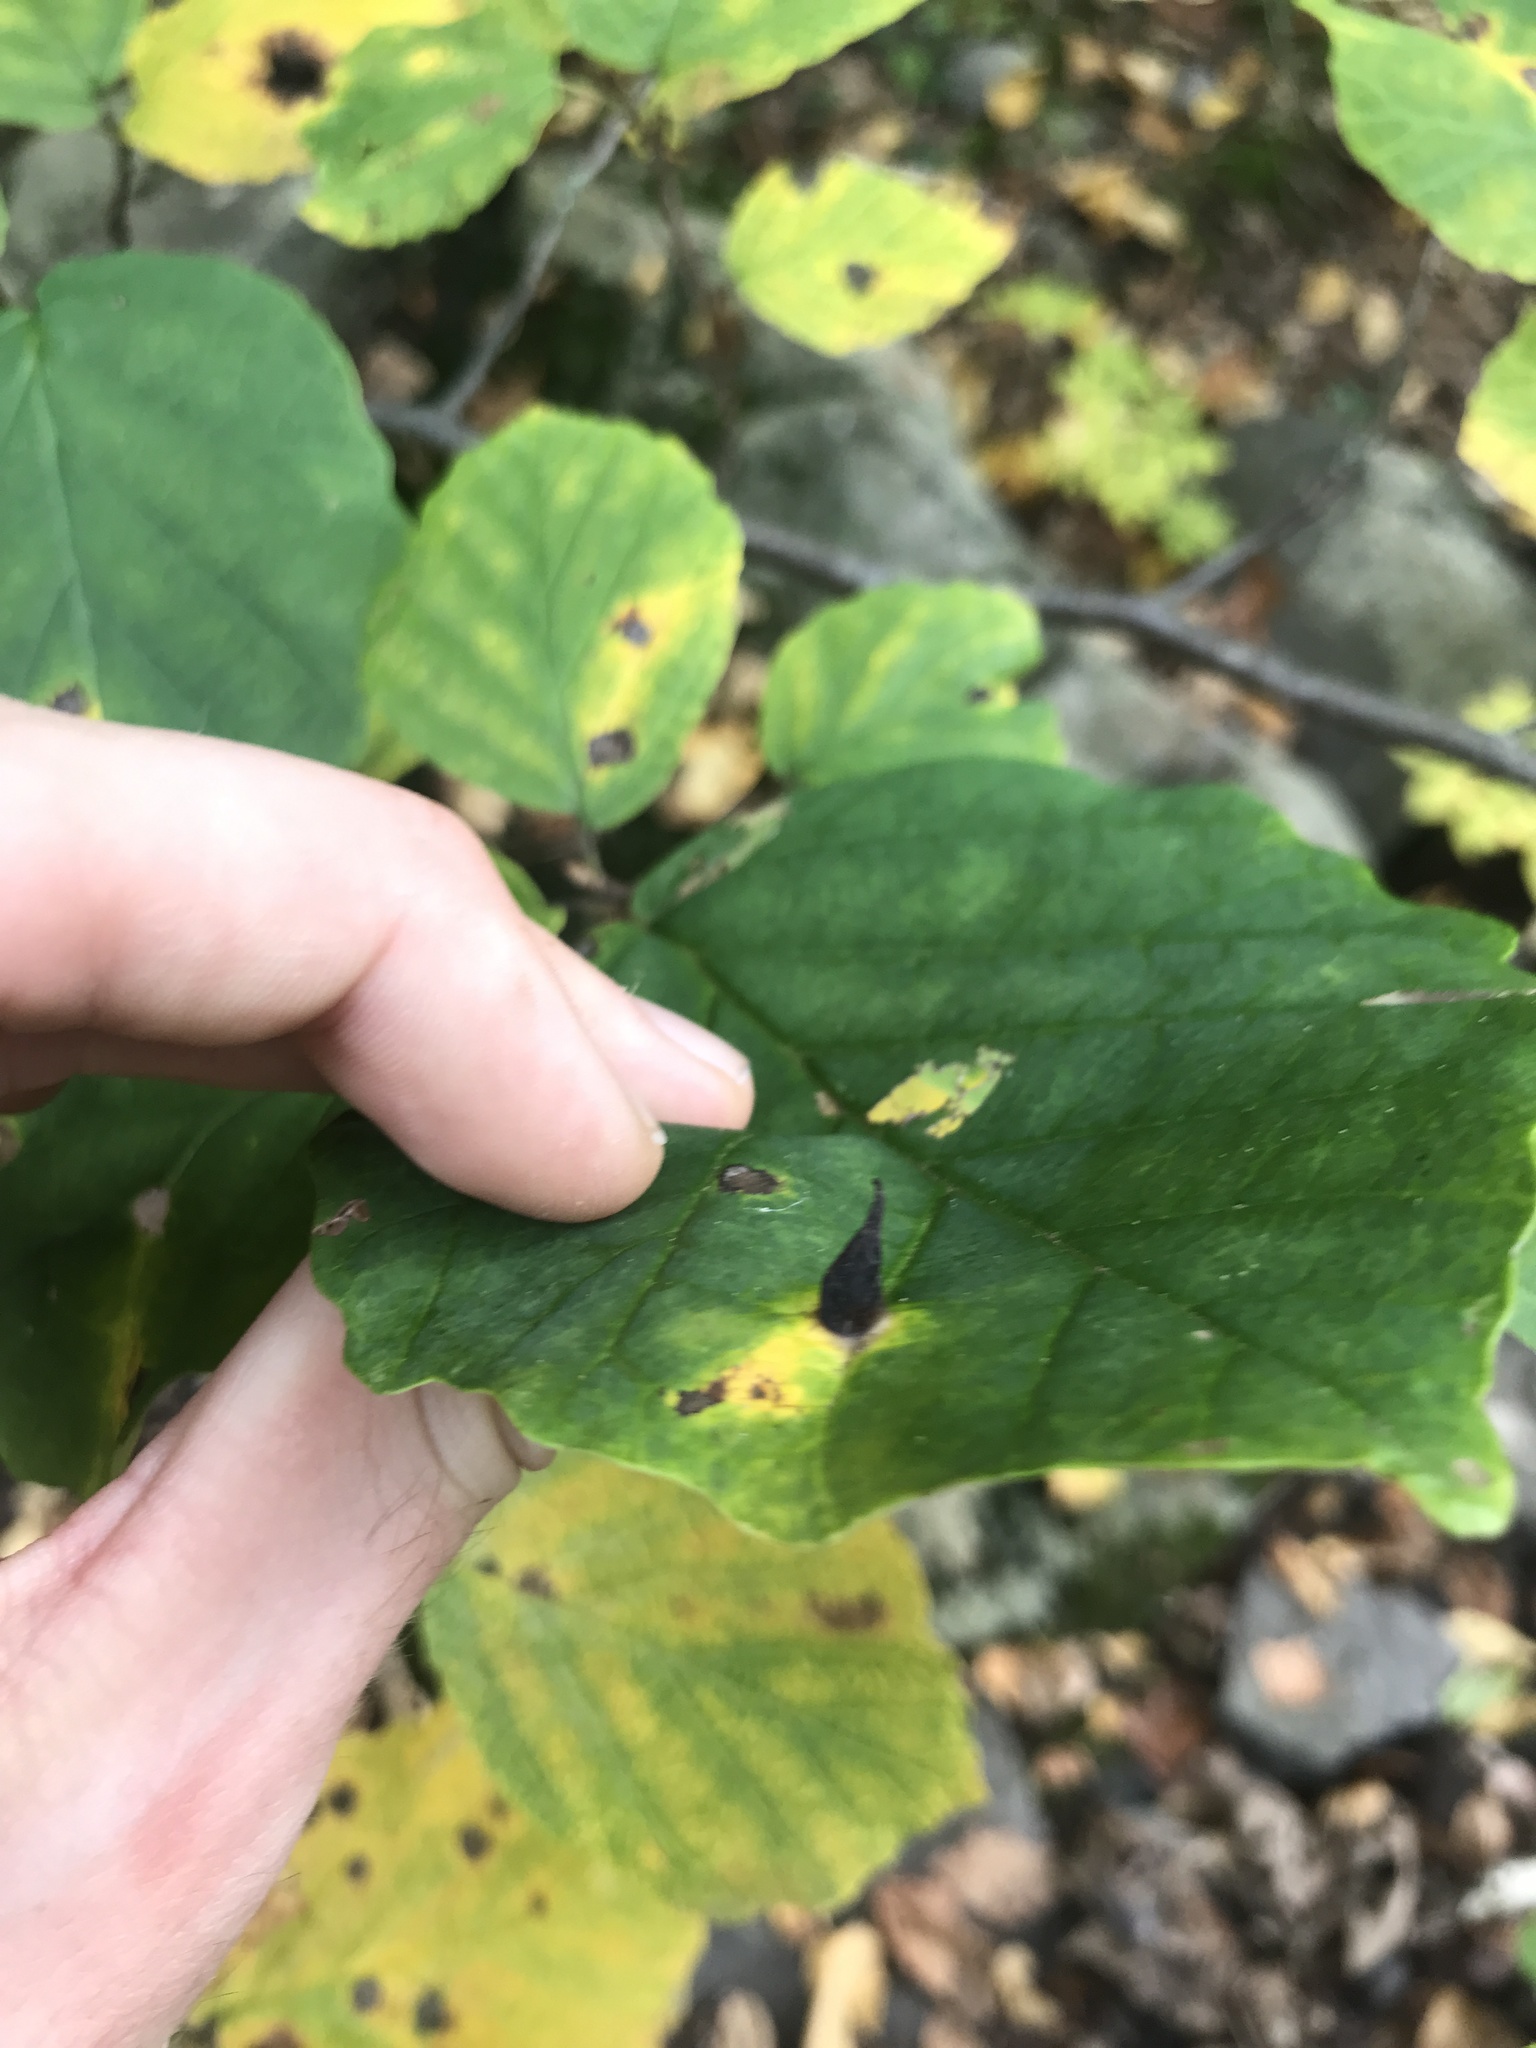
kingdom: Animalia
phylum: Arthropoda
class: Insecta
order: Hemiptera
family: Aphididae
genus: Hormaphis
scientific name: Hormaphis hamamelidis
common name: Witch-hazel cone gall aphid
